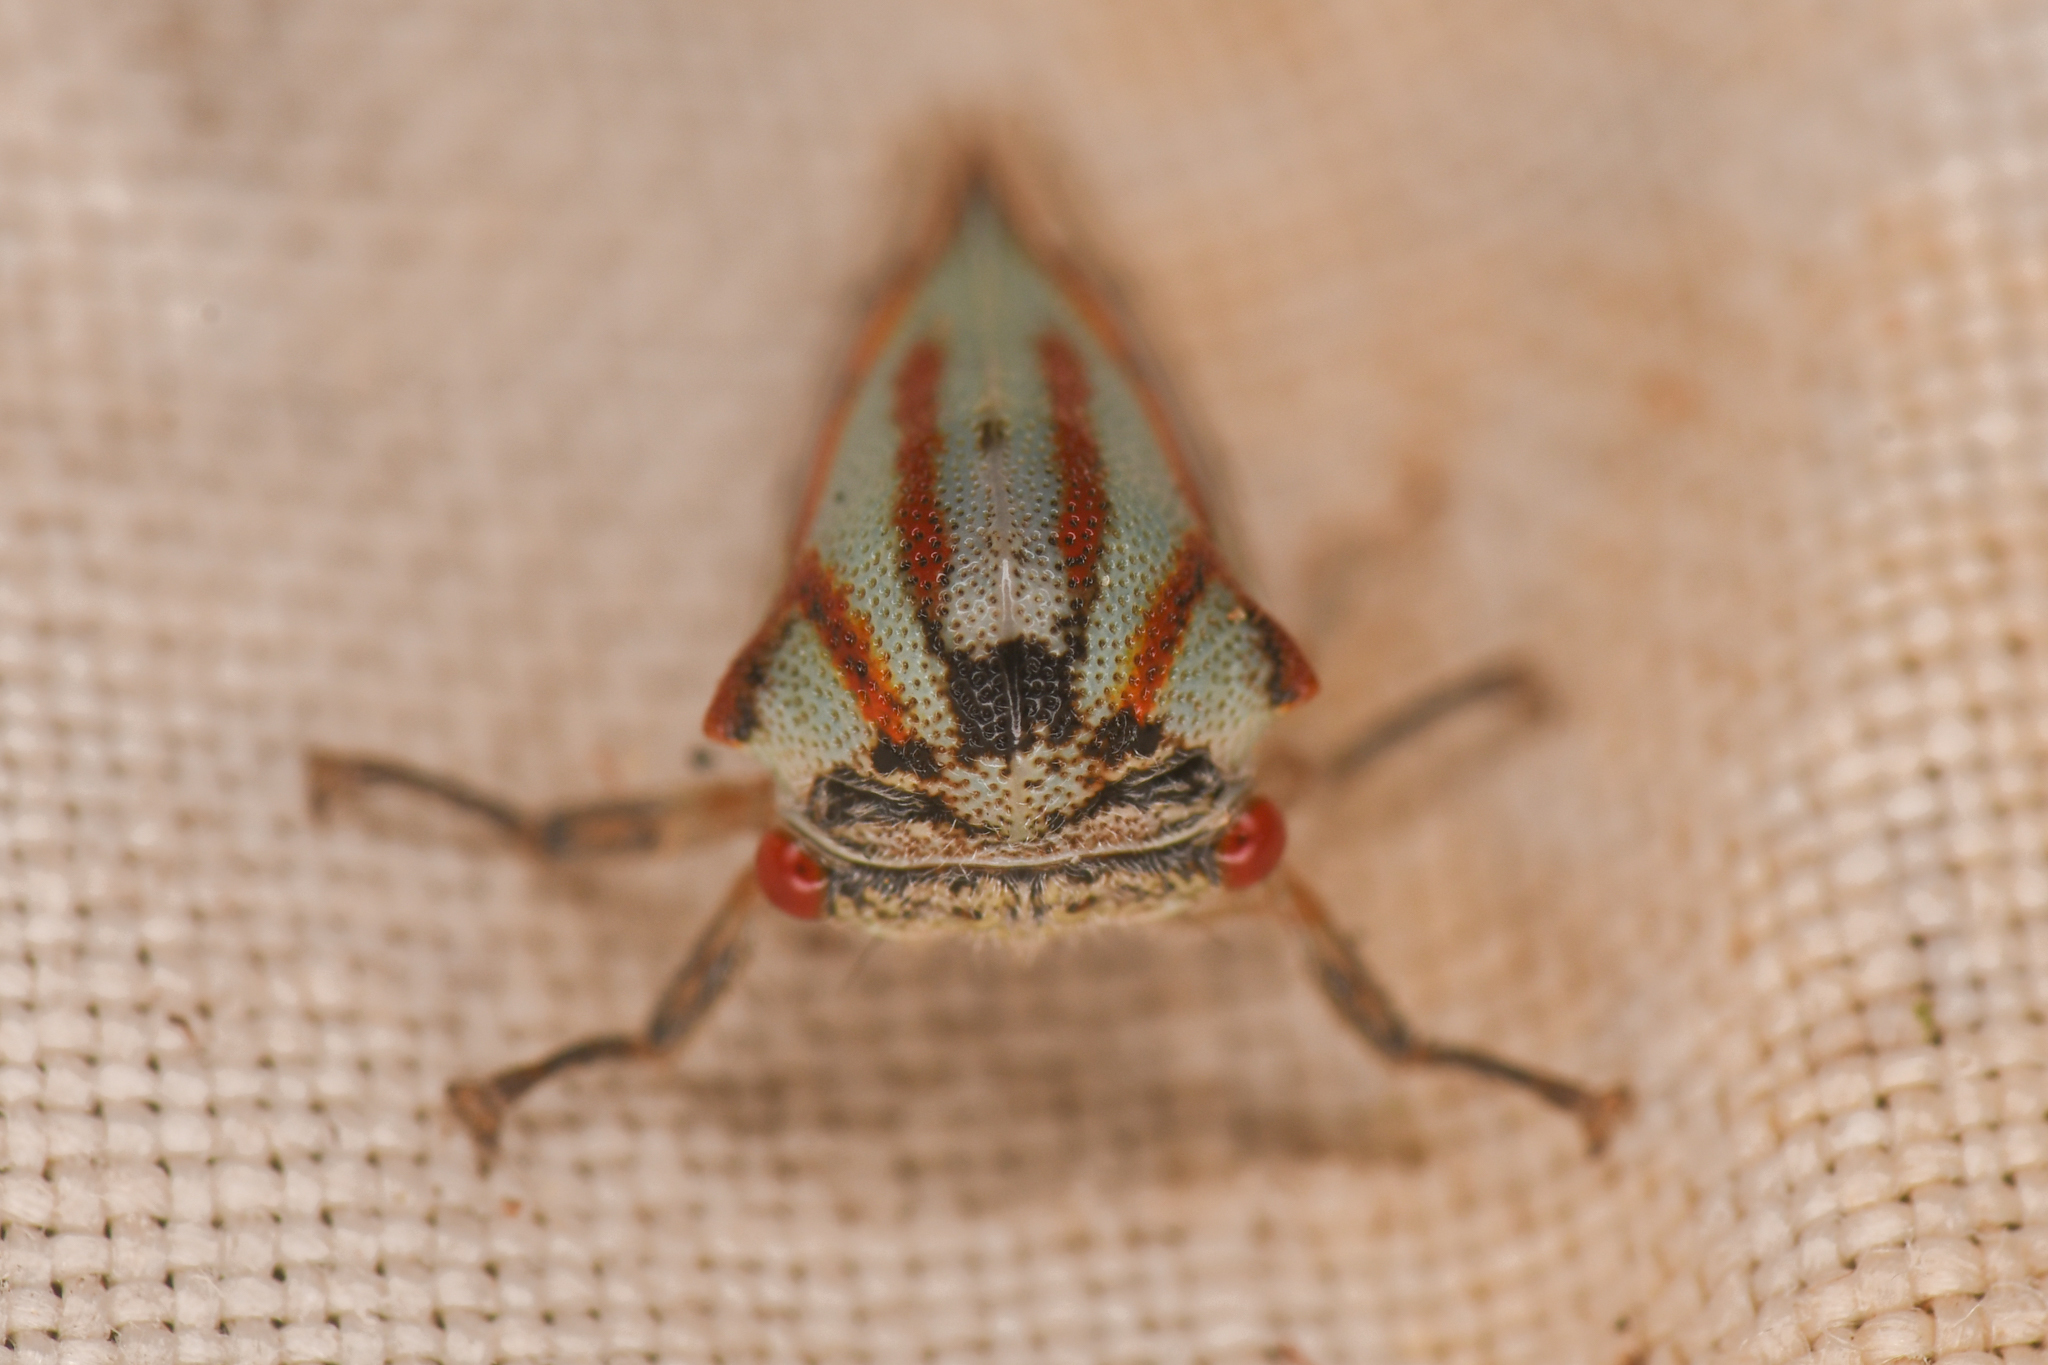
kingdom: Animalia
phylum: Arthropoda
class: Insecta
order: Hemiptera
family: Membracidae
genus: Platycotis
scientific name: Platycotis vittatus
